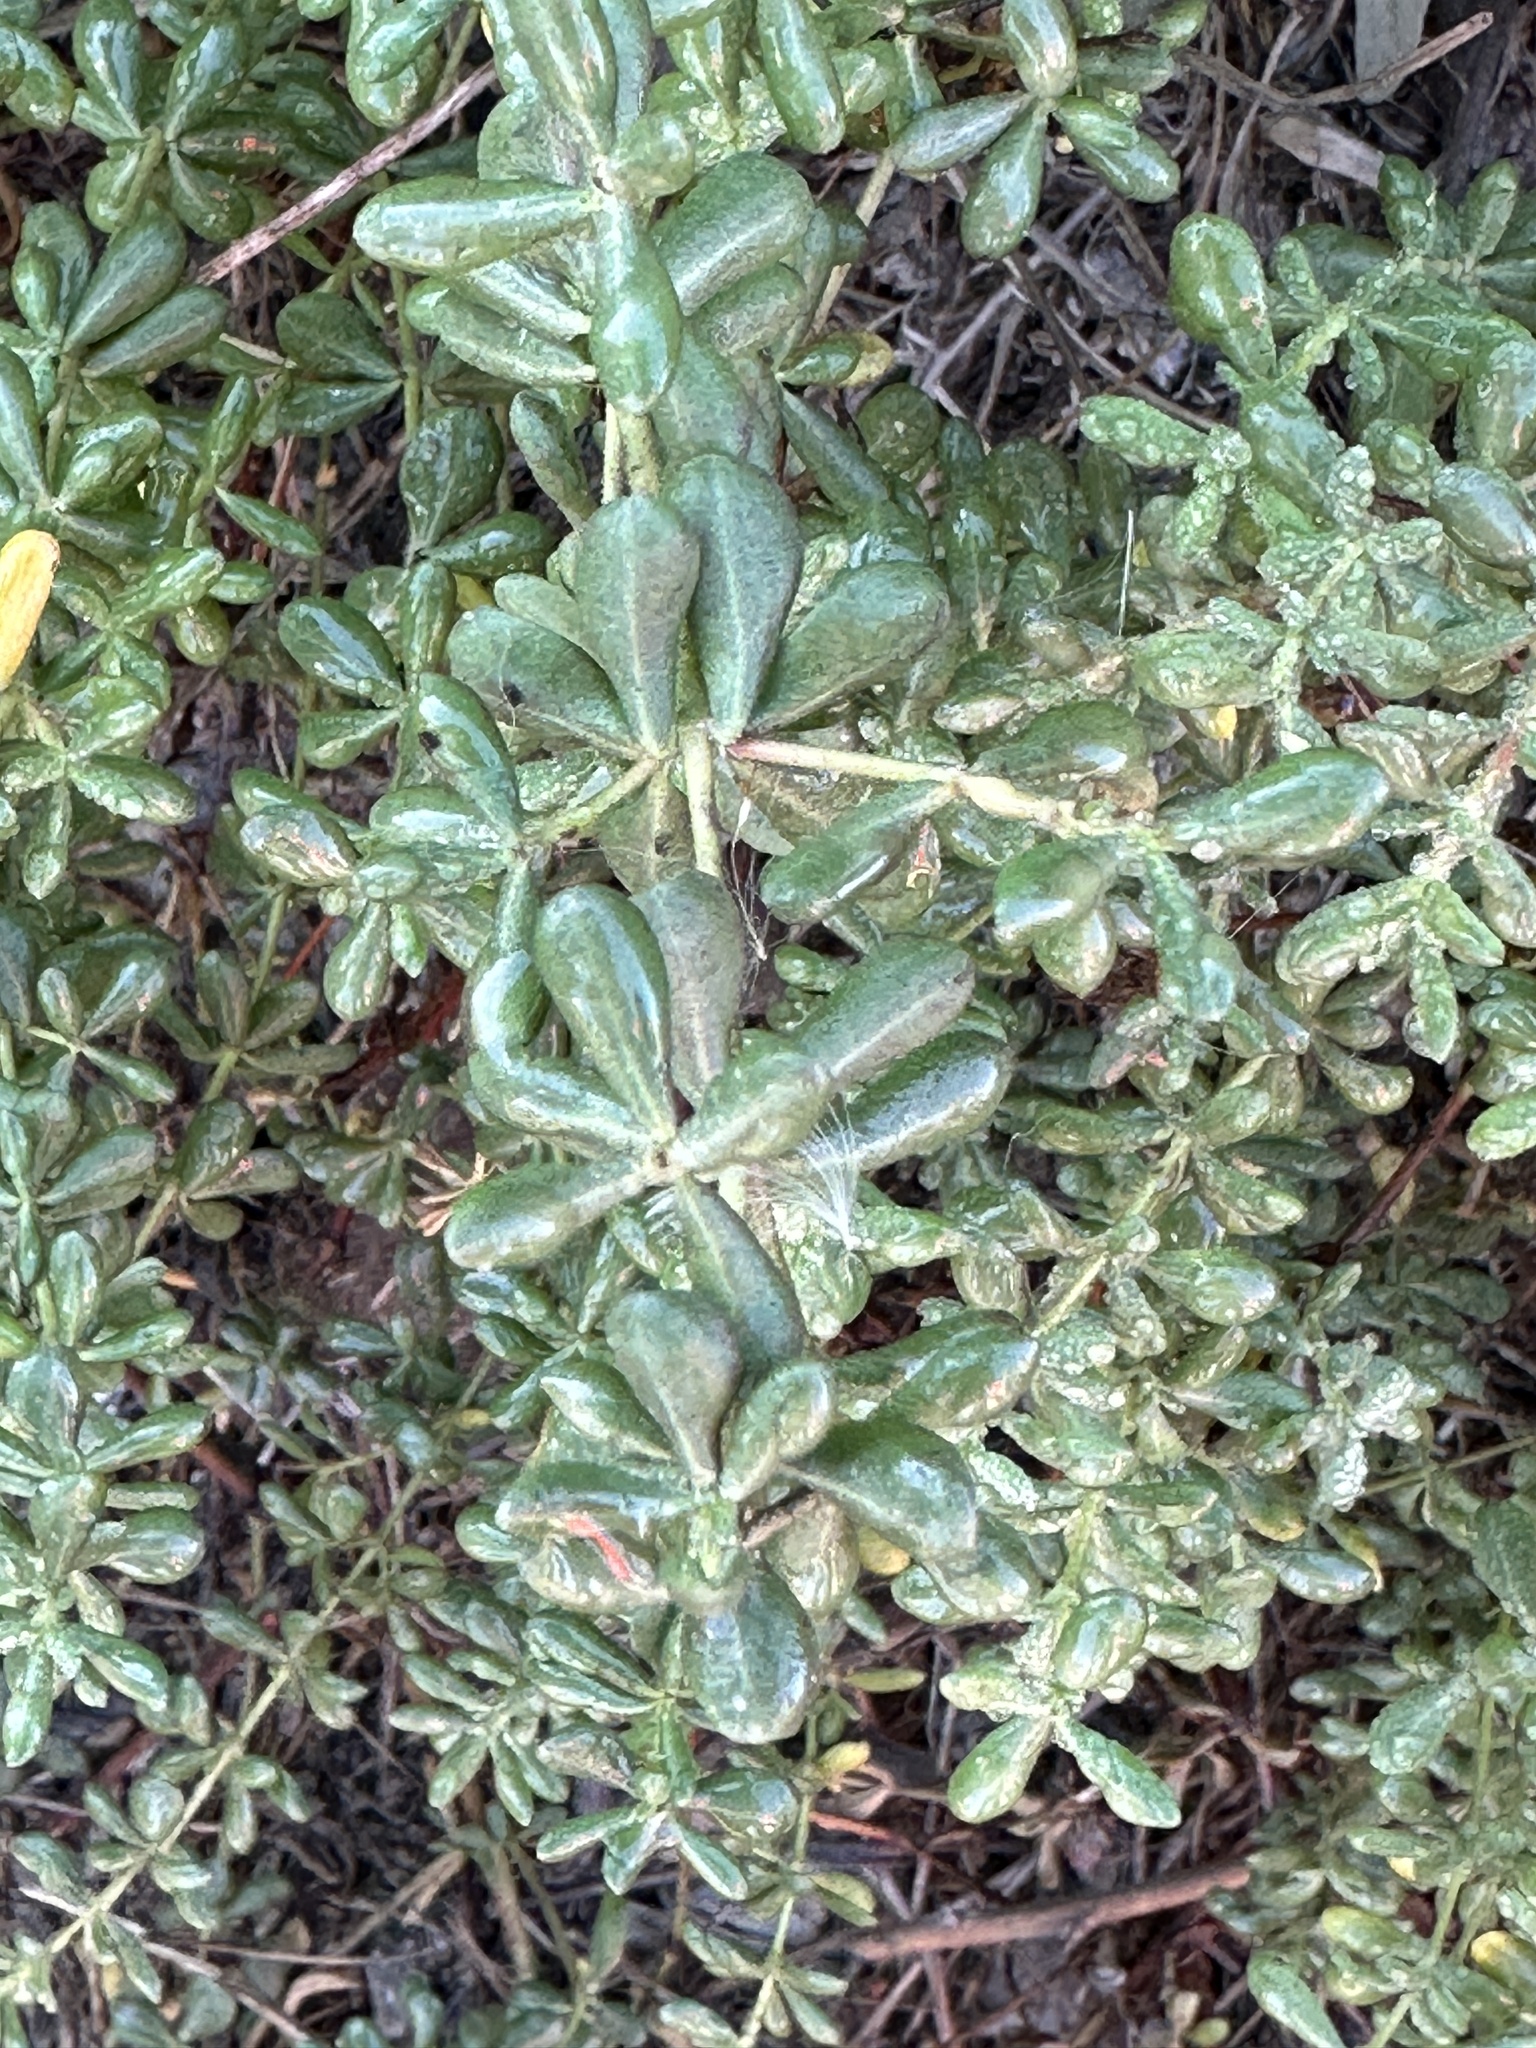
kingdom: Plantae
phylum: Tracheophyta
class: Magnoliopsida
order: Caryophyllales
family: Frankeniaceae
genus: Frankenia
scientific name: Frankenia salina
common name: Alkali seaheath
